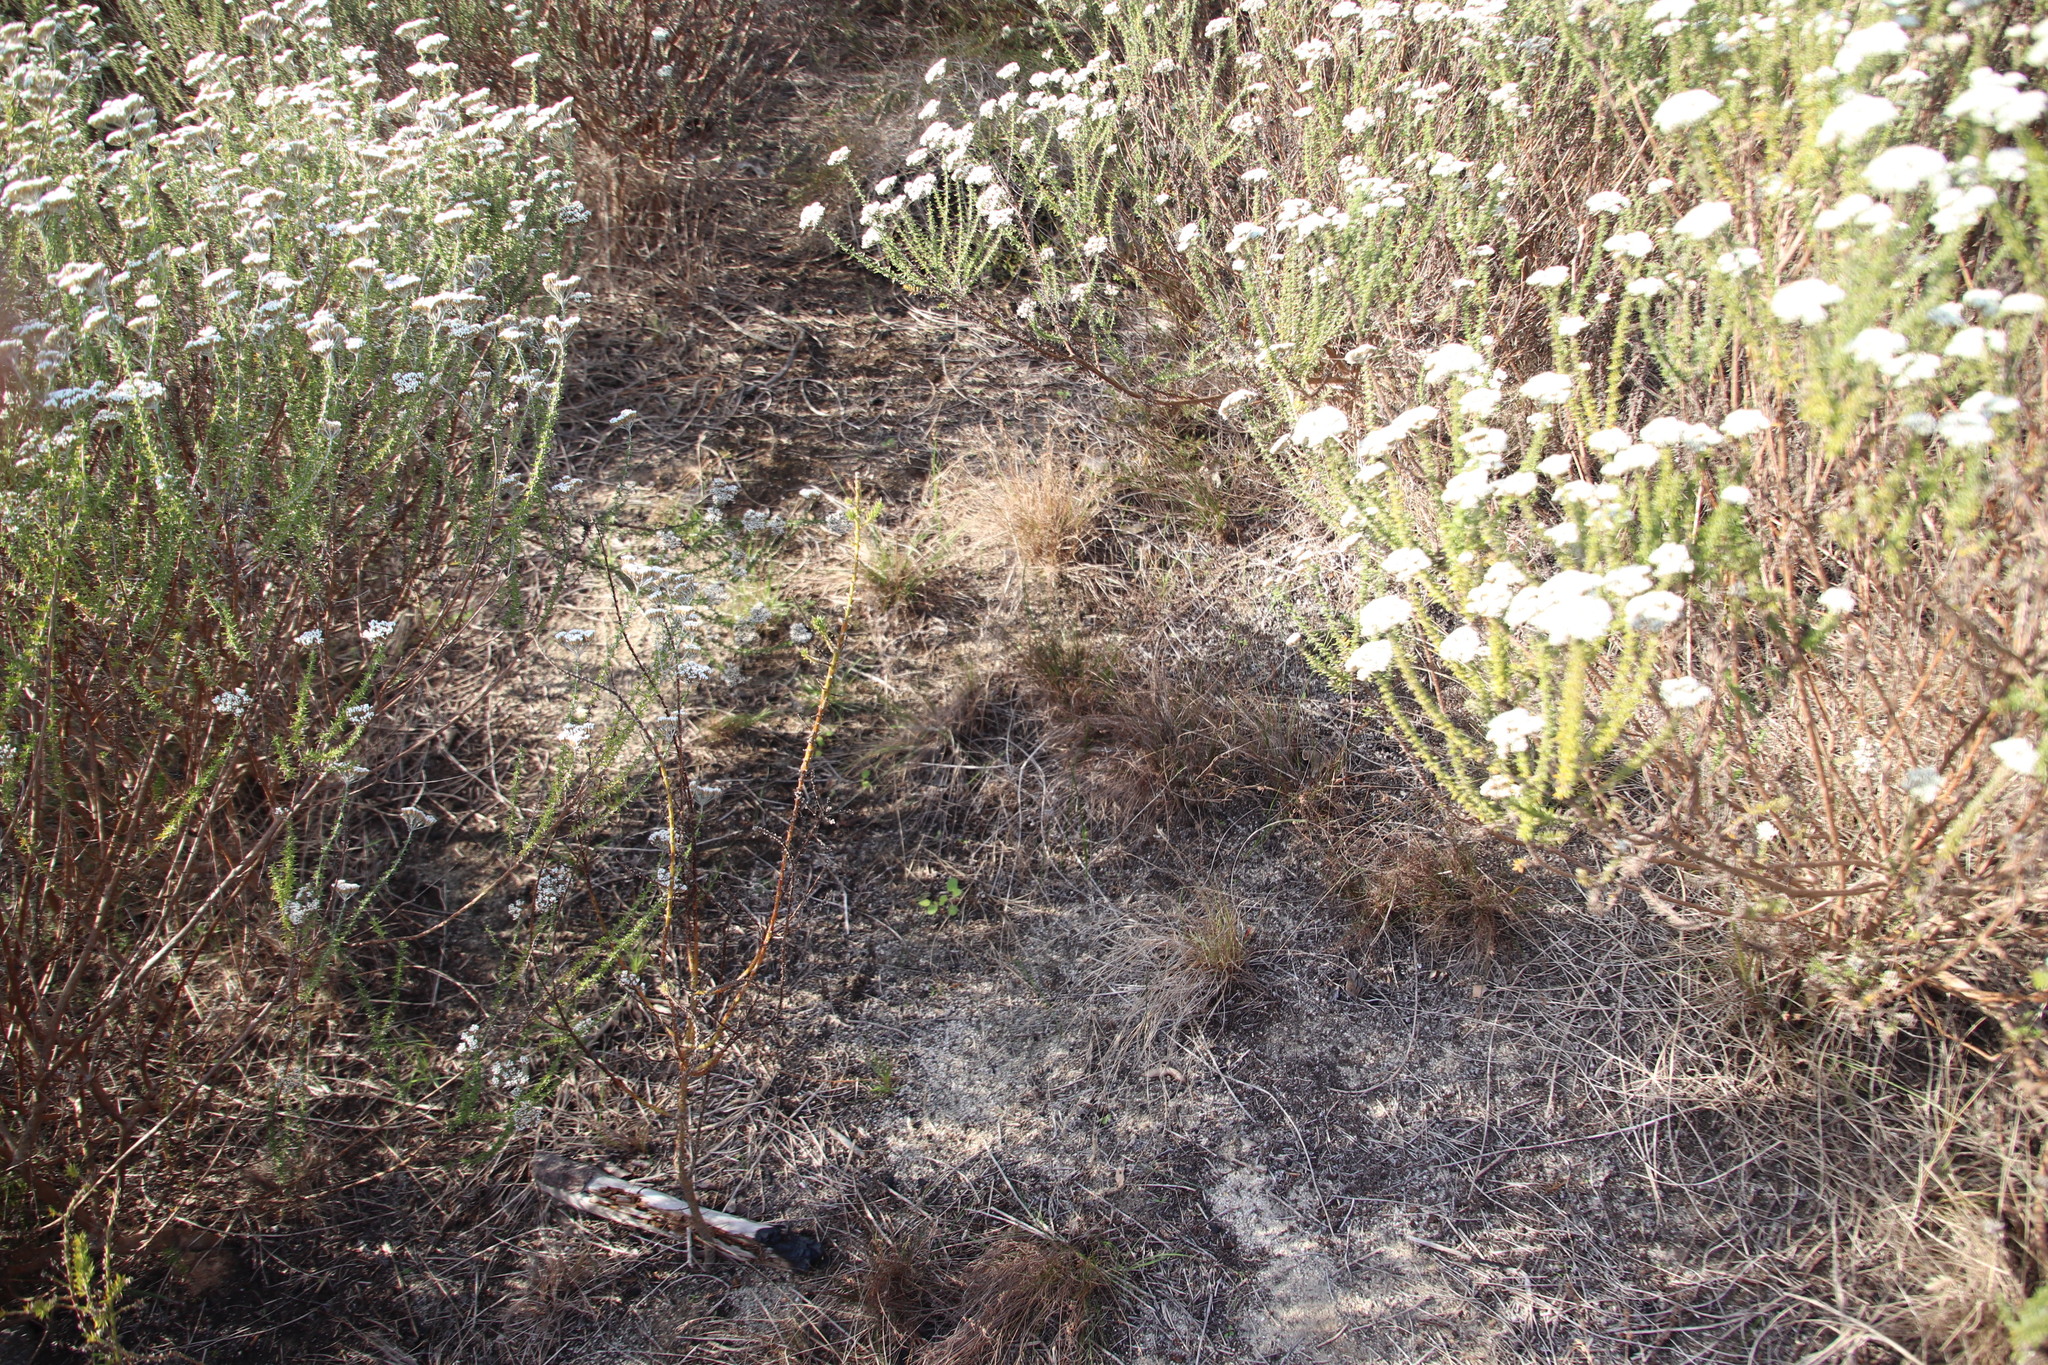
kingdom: Plantae
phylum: Tracheophyta
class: Liliopsida
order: Poales
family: Cyperaceae
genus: Ficinia
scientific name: Ficinia bulbosa
